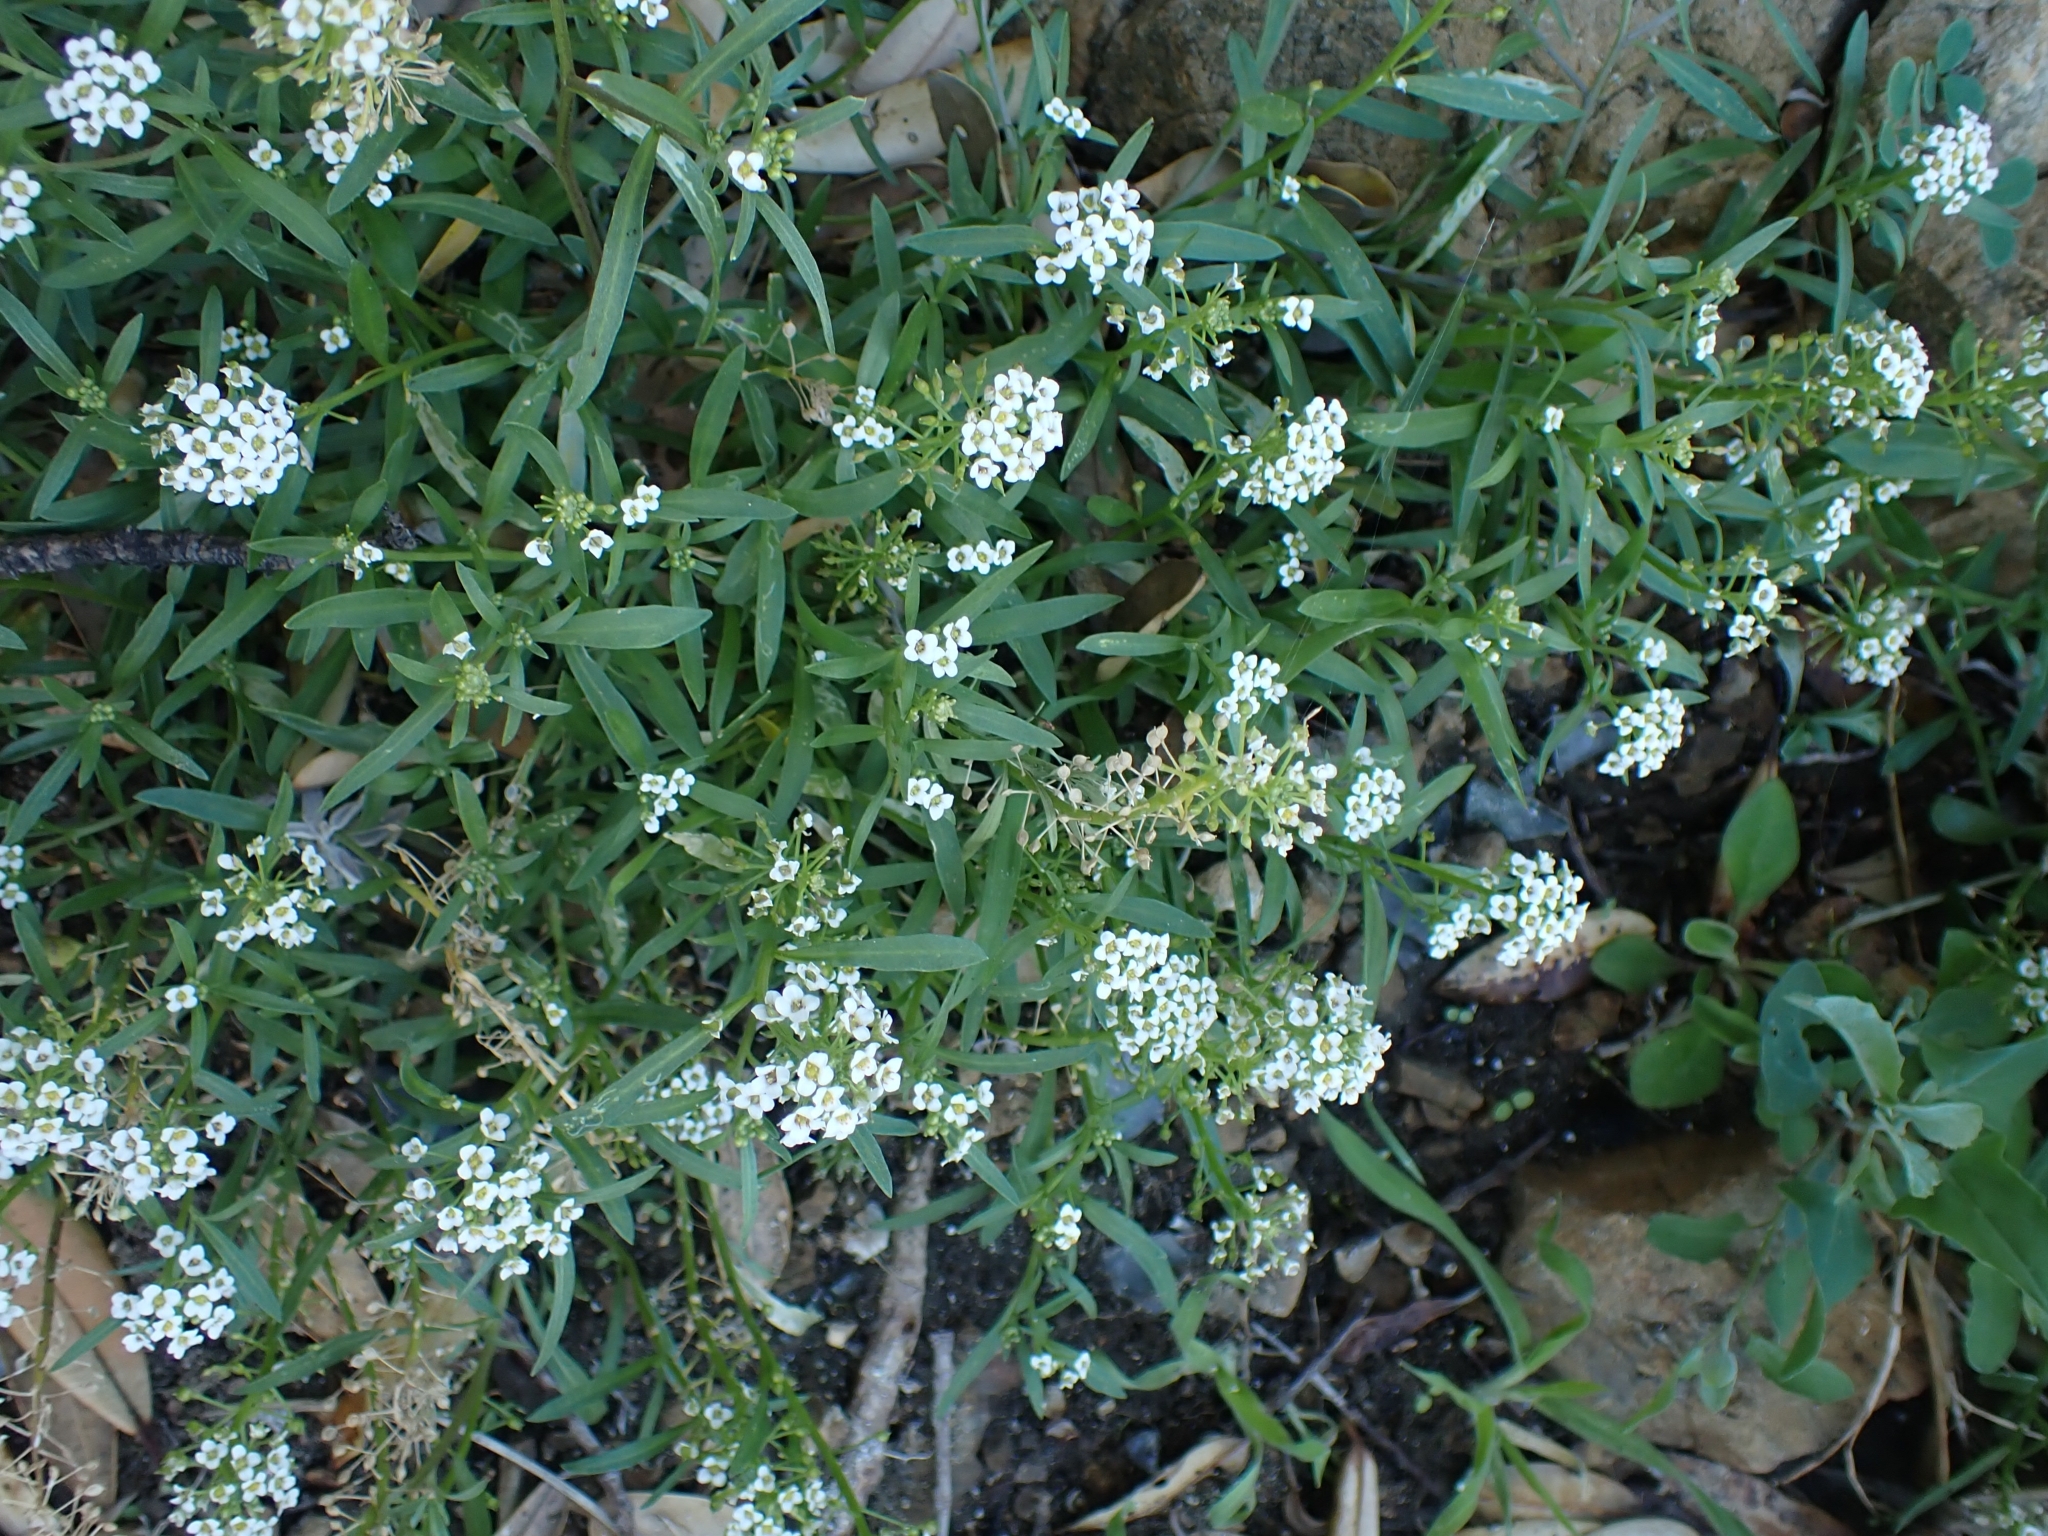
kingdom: Plantae
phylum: Tracheophyta
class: Magnoliopsida
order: Brassicales
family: Brassicaceae
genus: Lobularia
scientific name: Lobularia maritima
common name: Sweet alison
